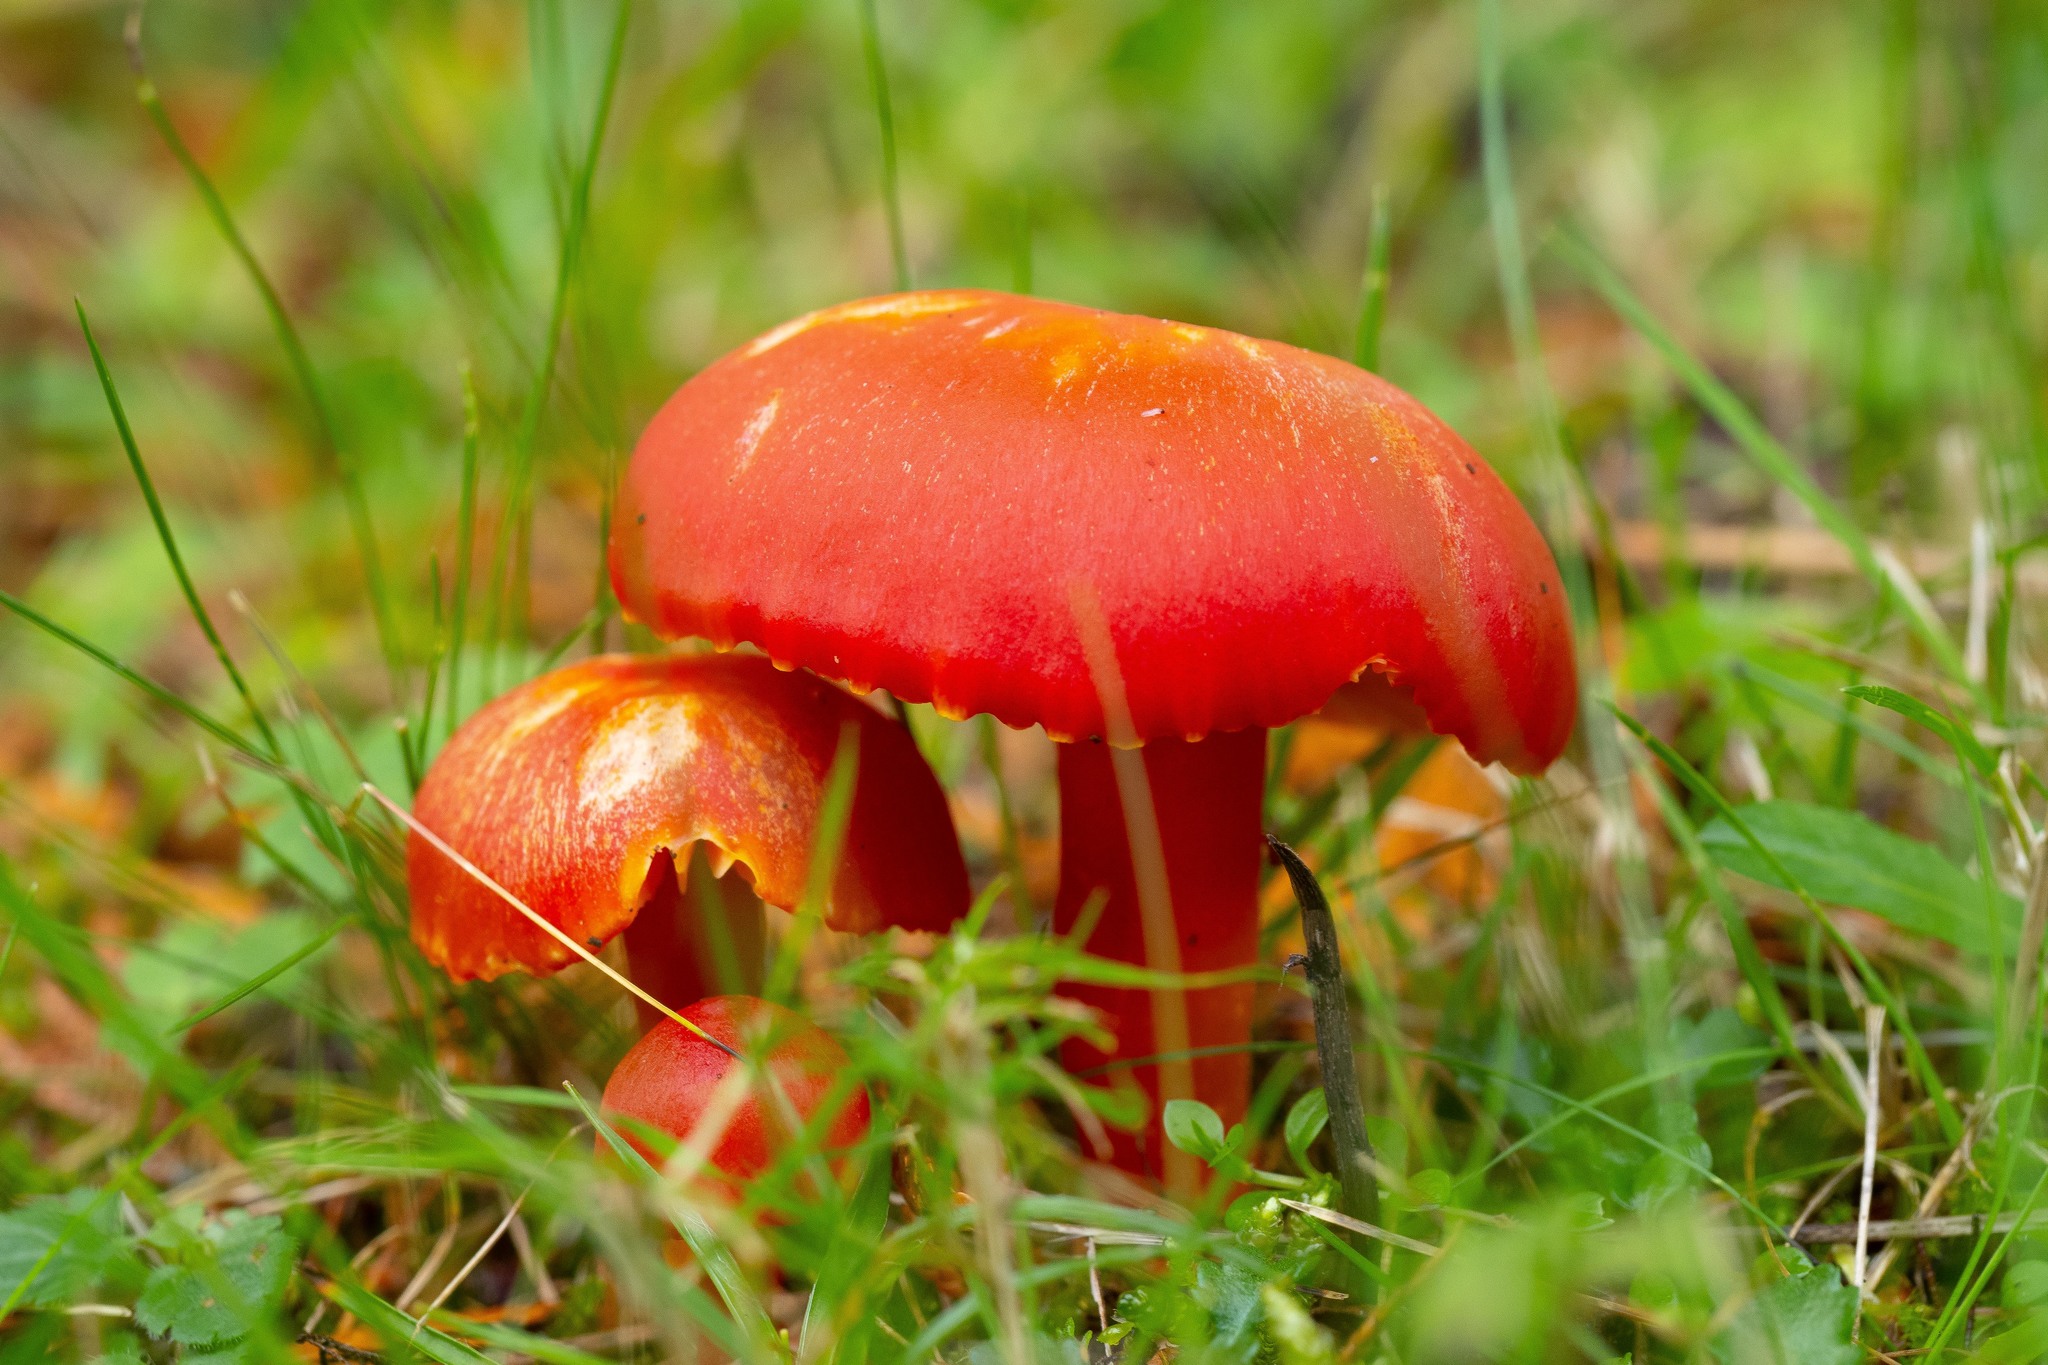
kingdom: Fungi
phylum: Basidiomycota
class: Agaricomycetes
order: Agaricales
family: Hygrophoraceae
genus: Hygrocybe
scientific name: Hygrocybe coccinea
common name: Scarlet hood
